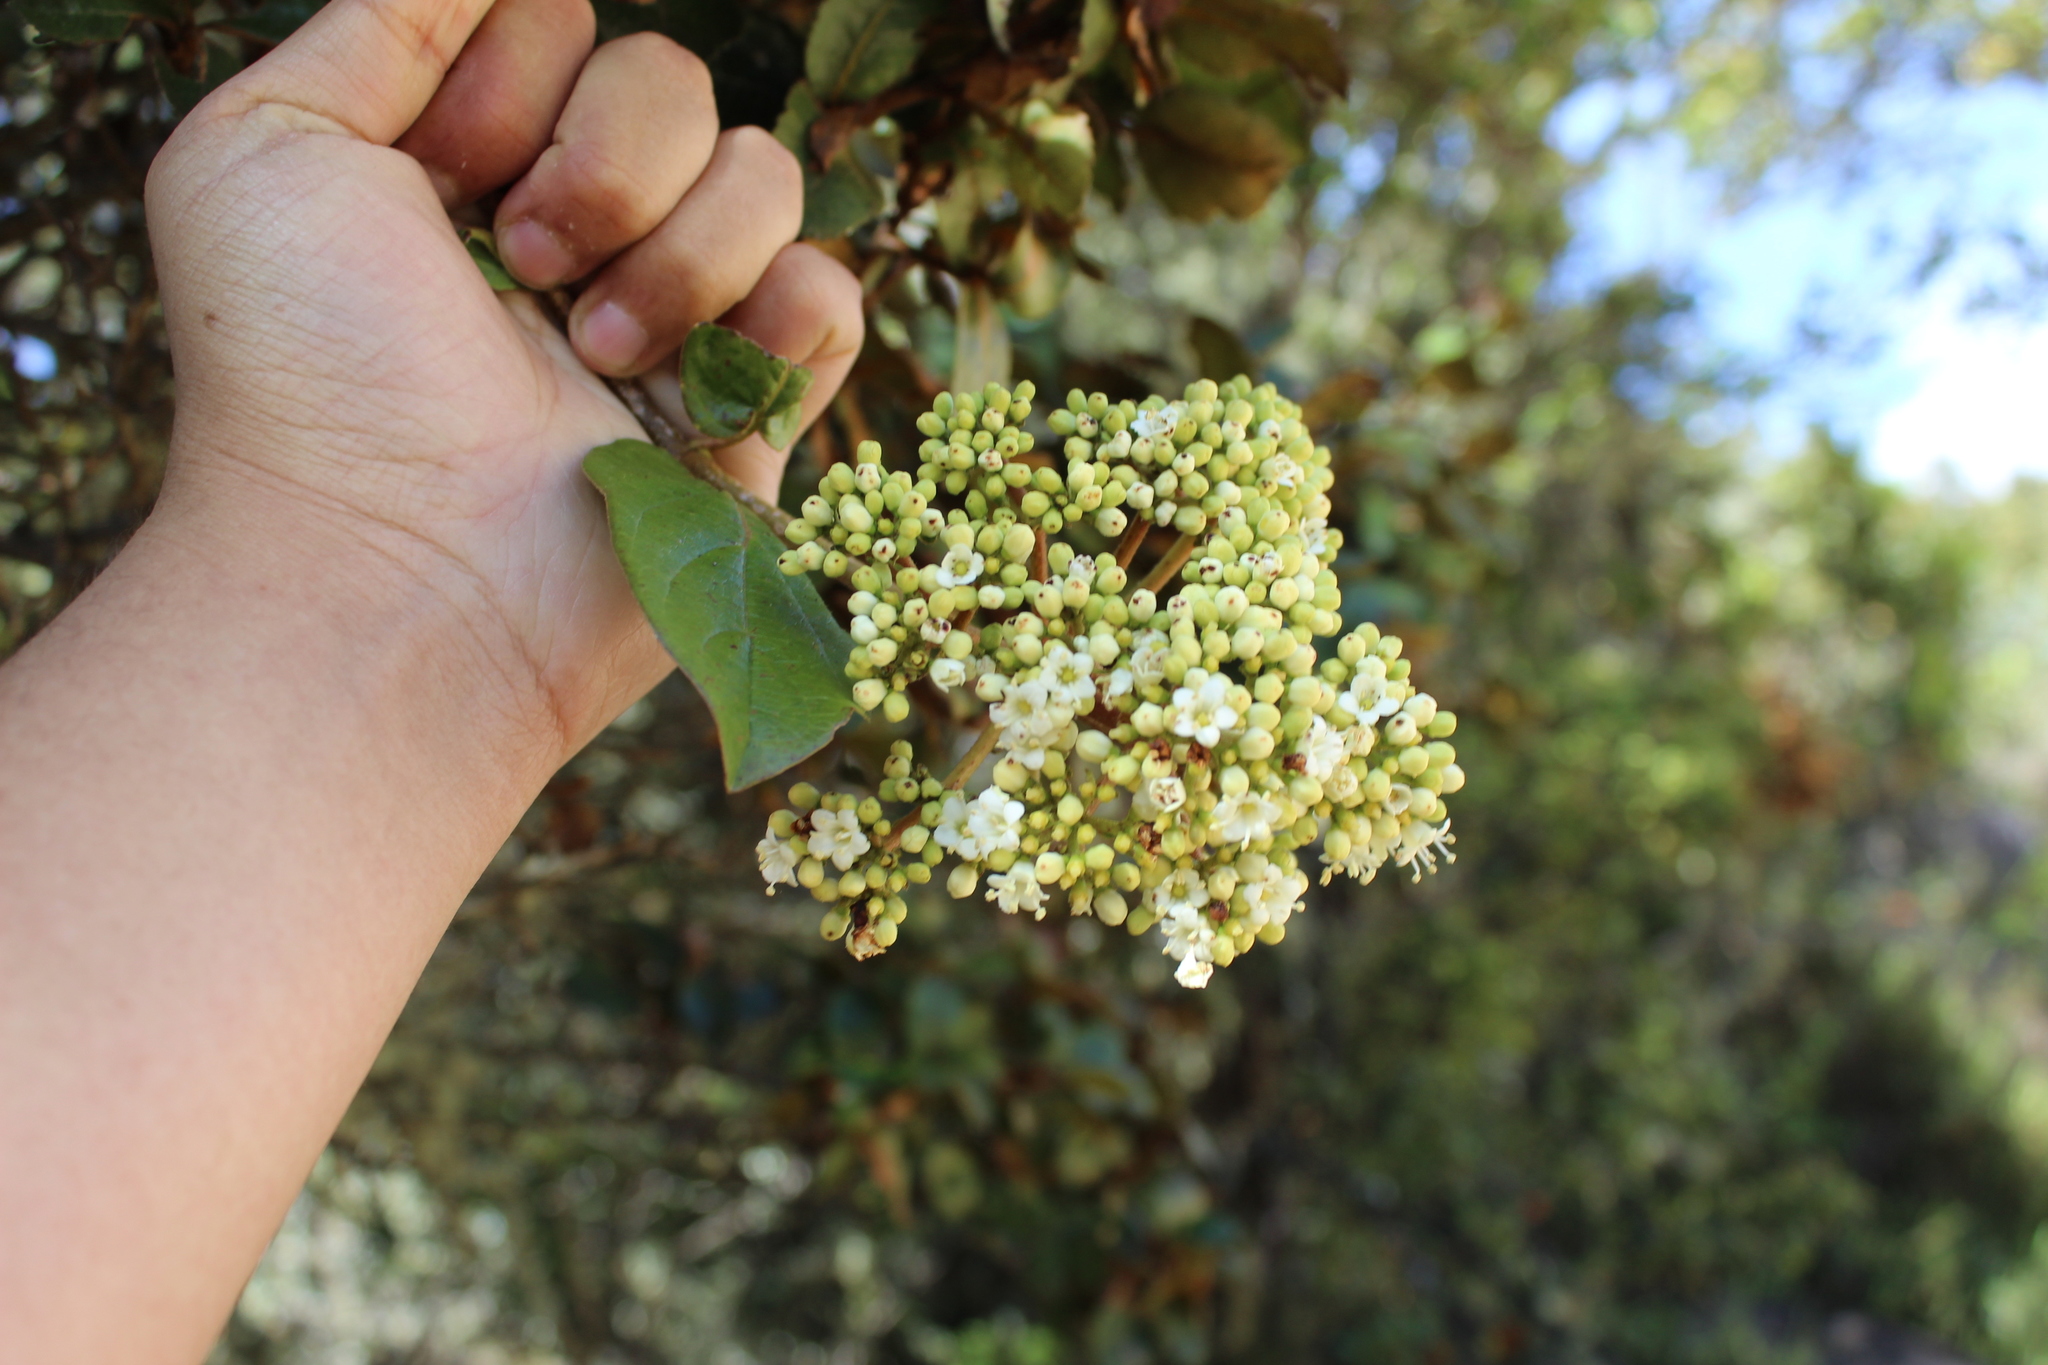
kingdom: Plantae
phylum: Tracheophyta
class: Magnoliopsida
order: Dipsacales
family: Viburnaceae
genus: Viburnum
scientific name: Viburnum triphyllum
